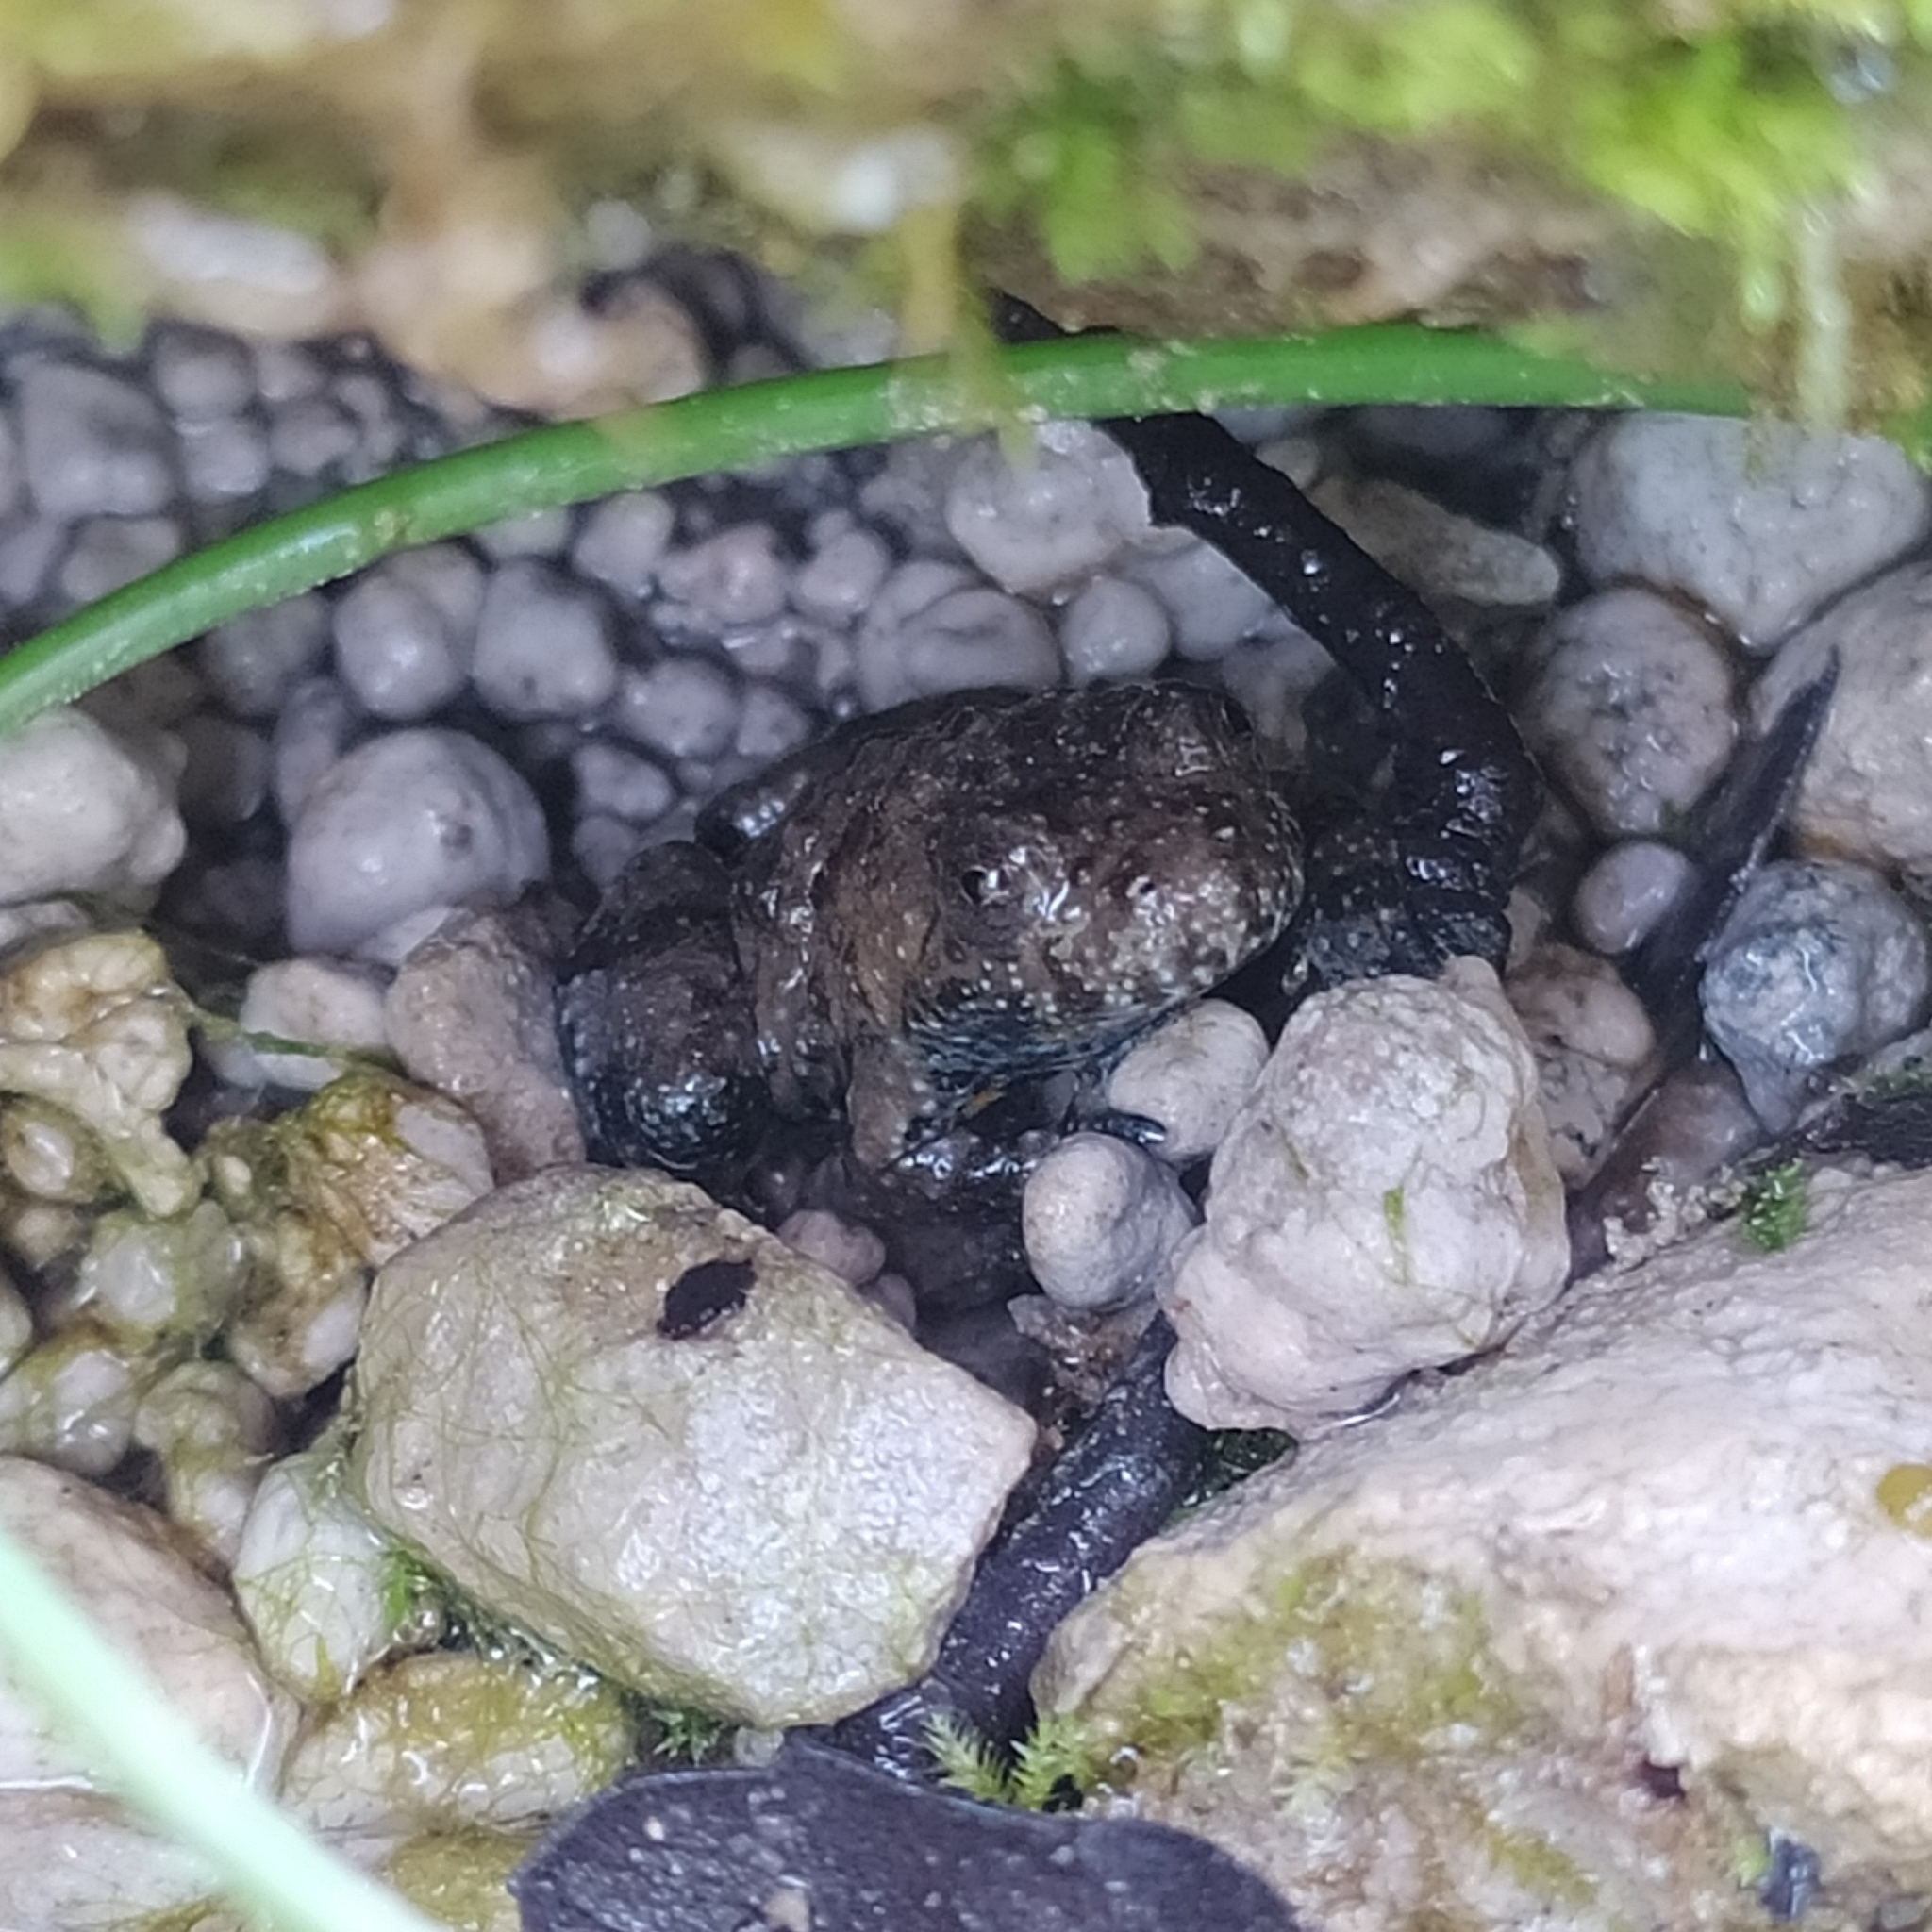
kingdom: Animalia
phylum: Chordata
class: Amphibia
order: Anura
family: Bombinatoridae
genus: Bombina
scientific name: Bombina variegata
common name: Yellow-bellied toad
